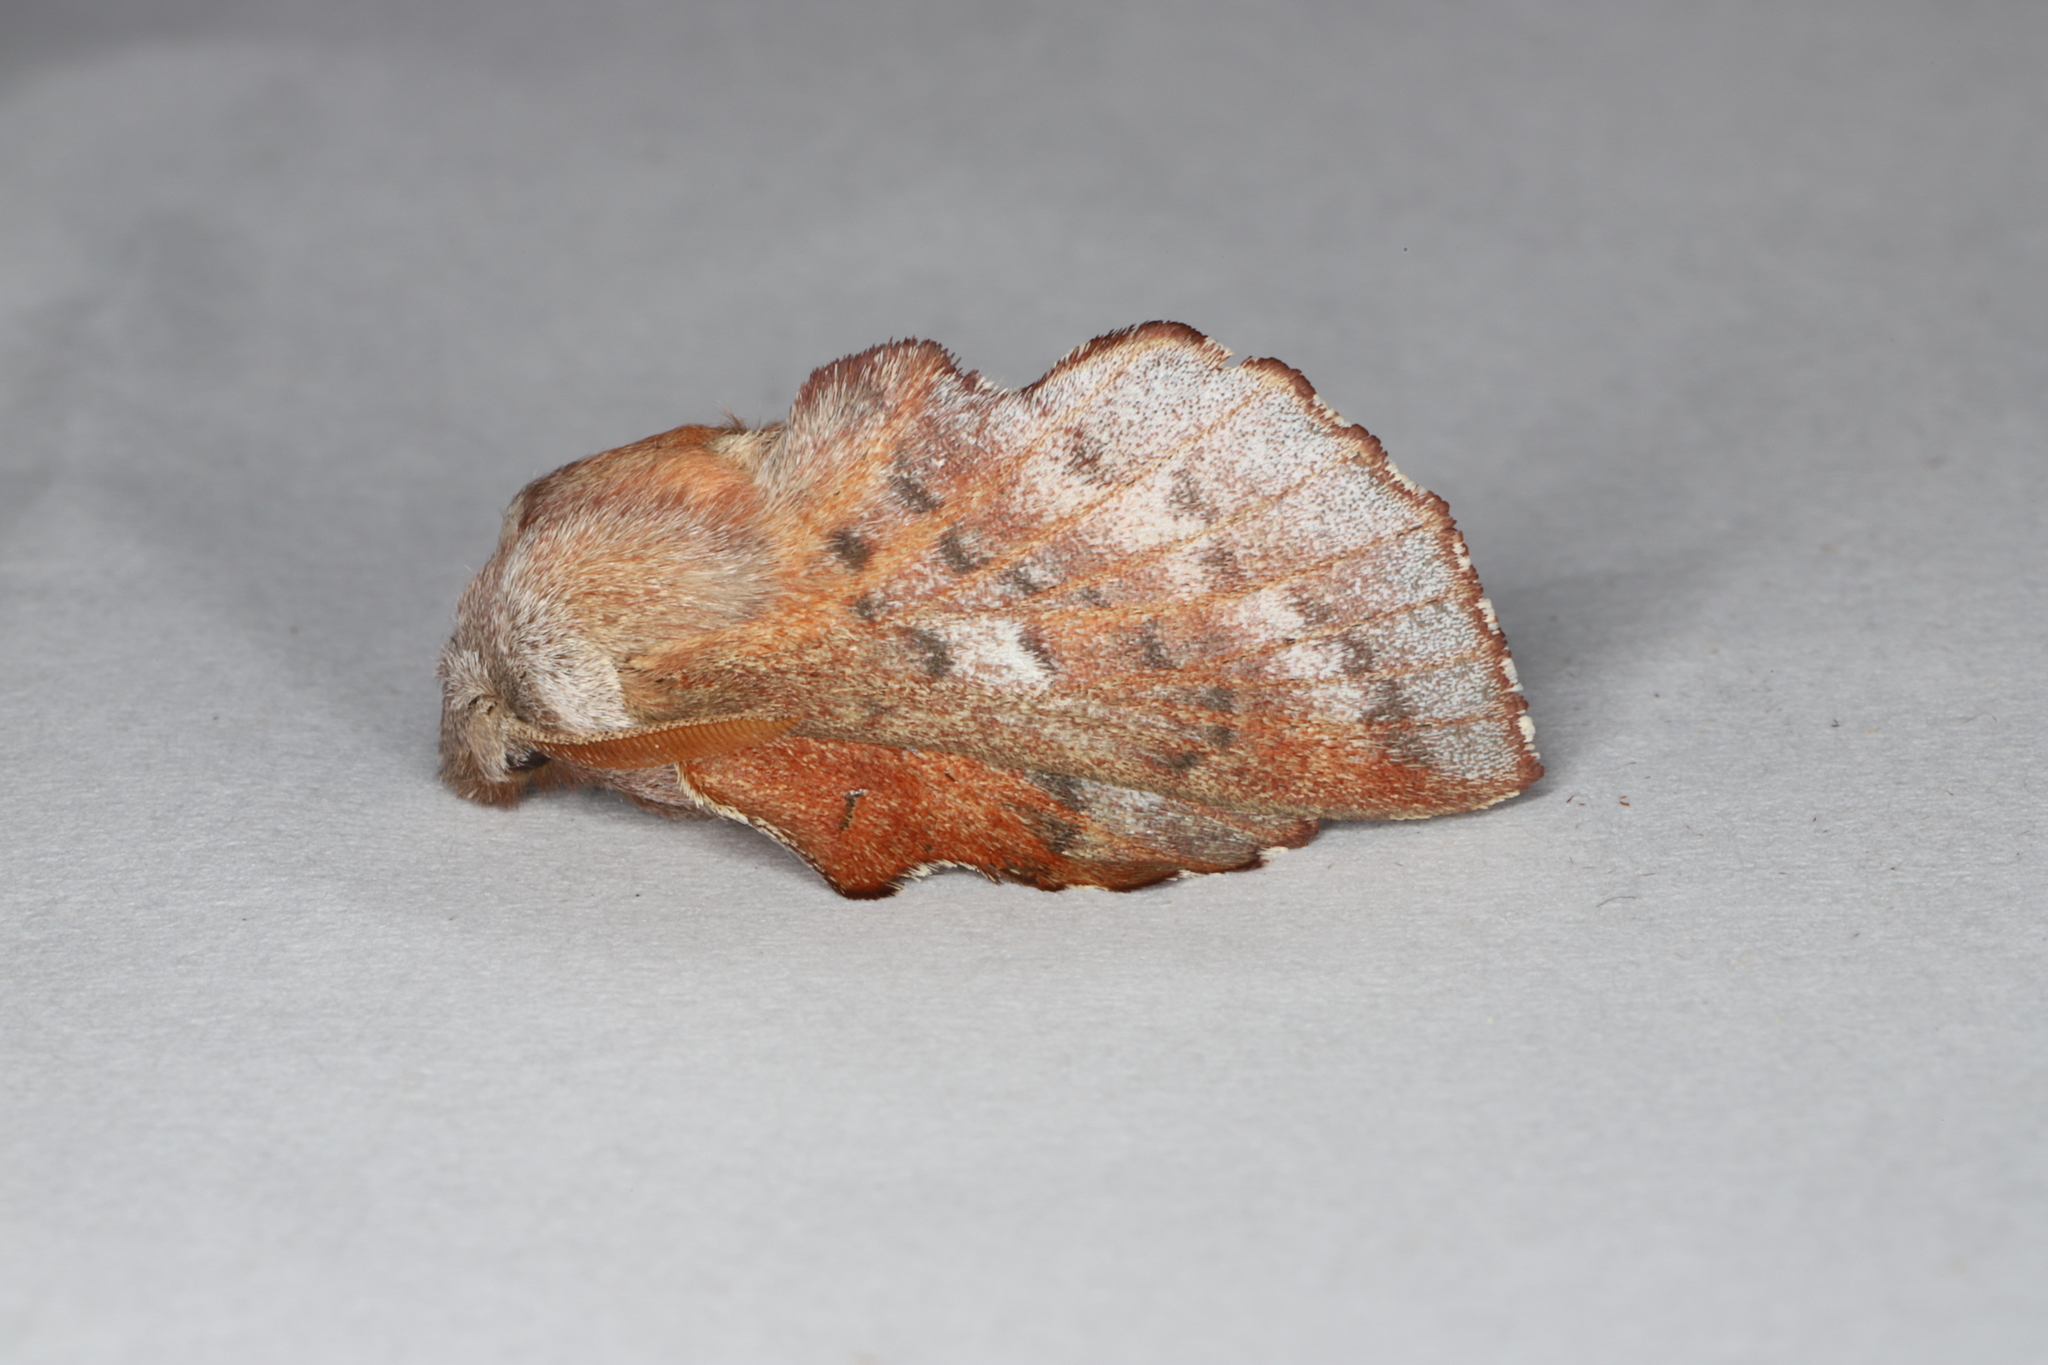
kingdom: Animalia
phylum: Arthropoda
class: Insecta
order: Lepidoptera
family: Lasiocampidae
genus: Phyllodesma
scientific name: Phyllodesma americana
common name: American lappet moth
